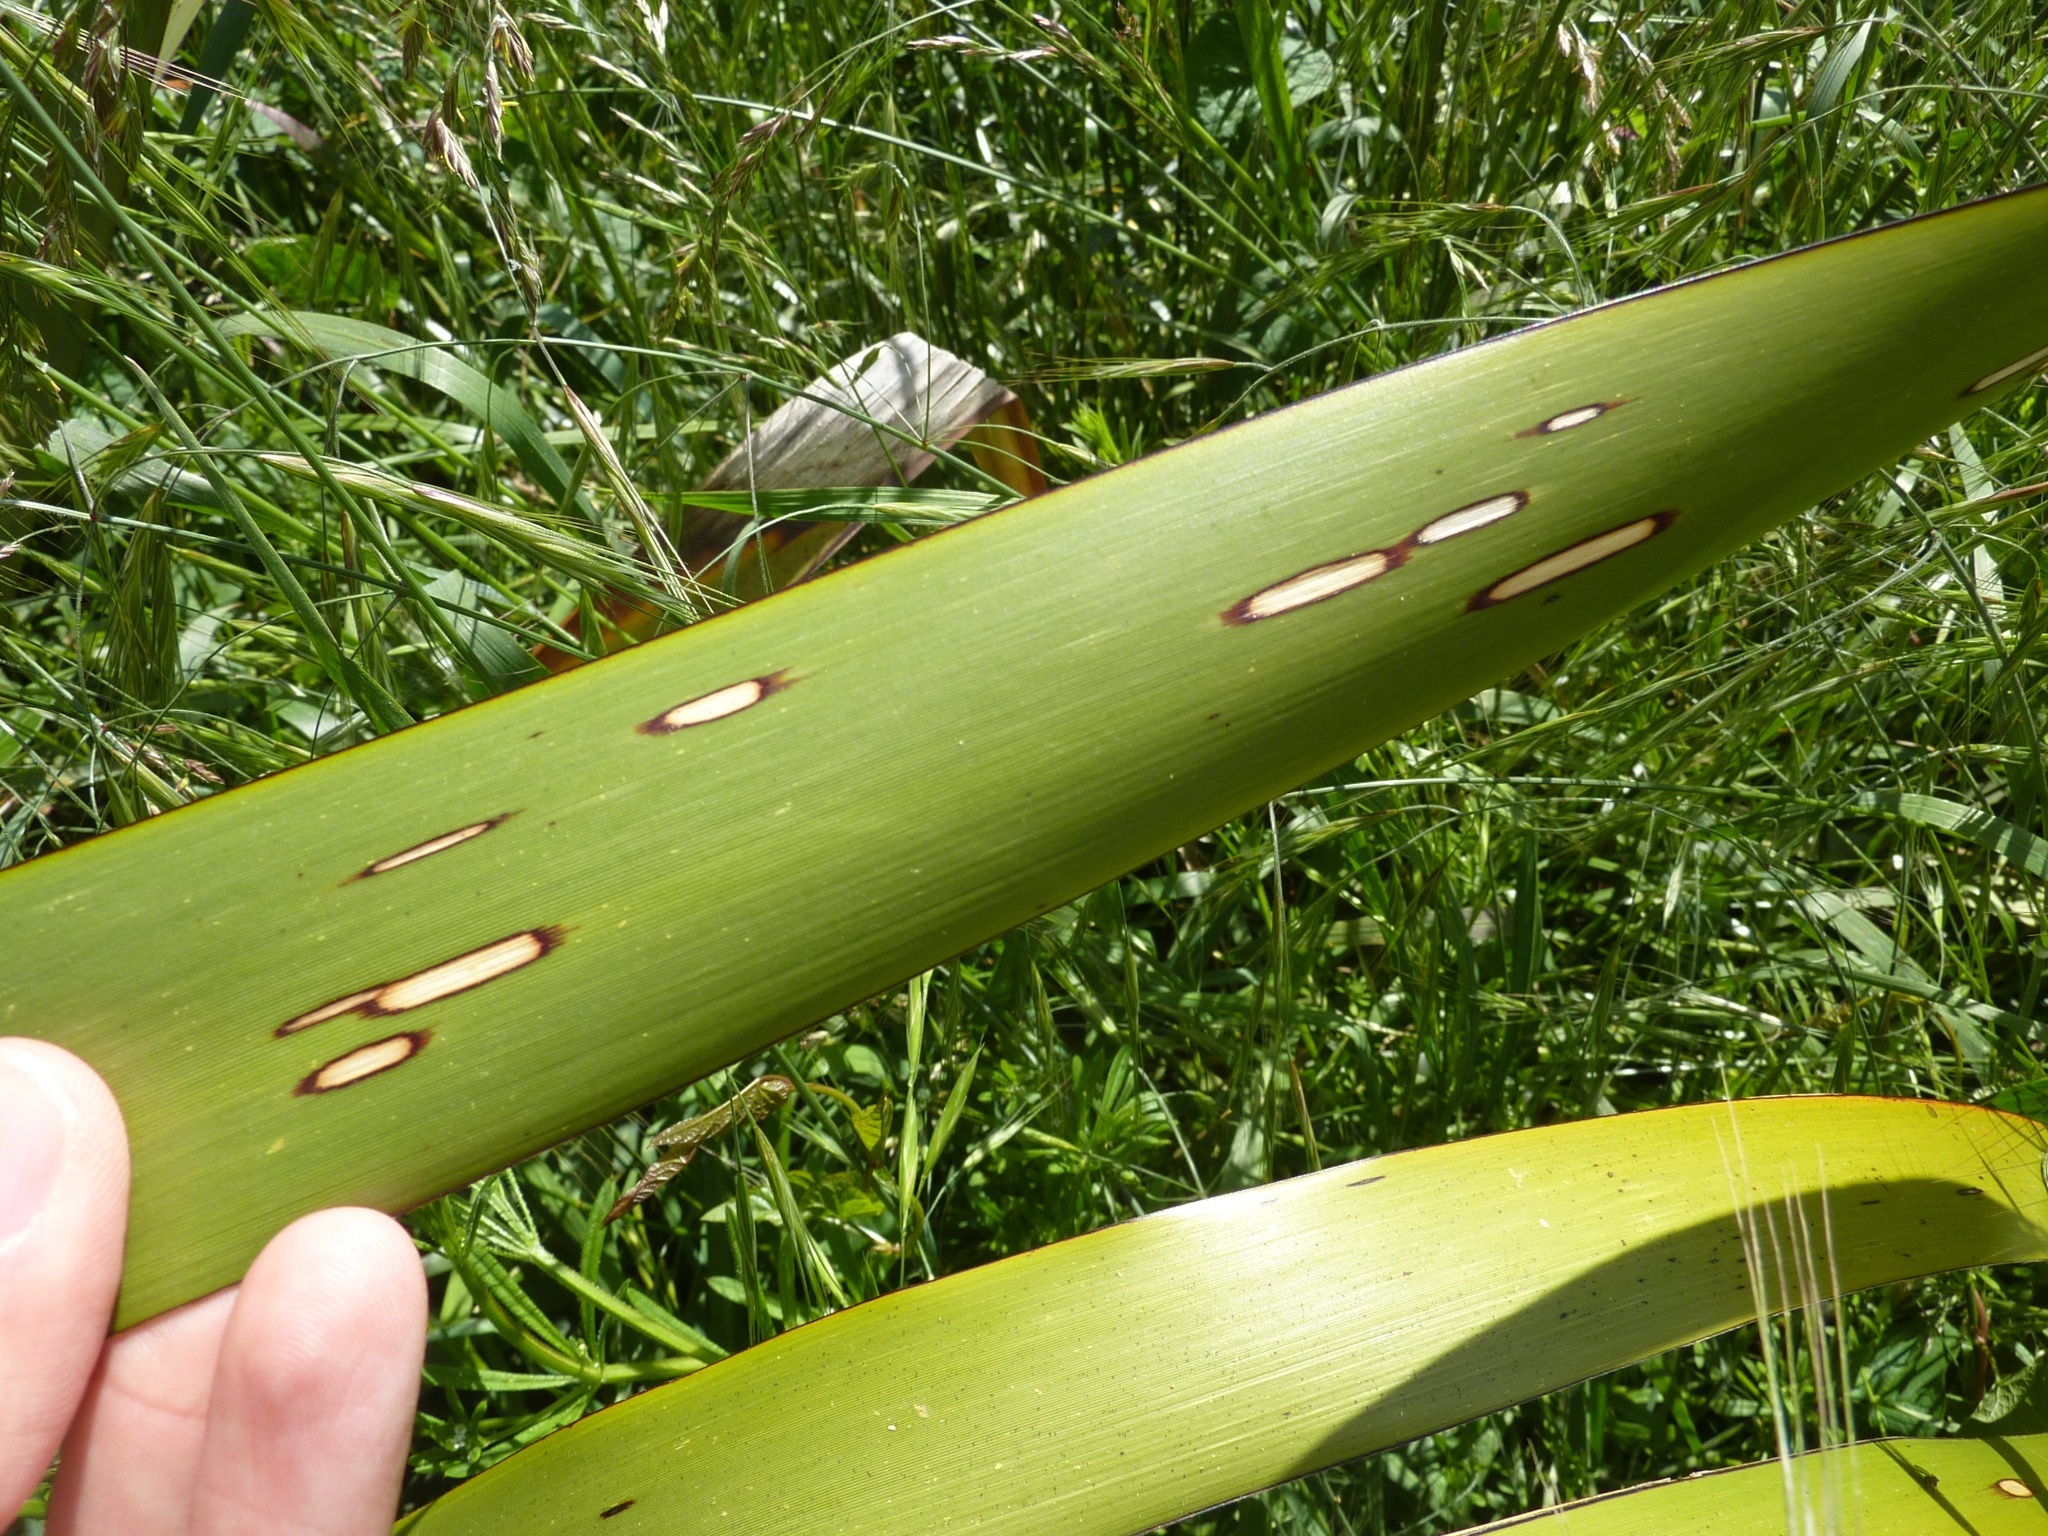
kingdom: Animalia
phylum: Arthropoda
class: Insecta
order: Lepidoptera
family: Geometridae
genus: Orthoclydon
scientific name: Orthoclydon praefectata
